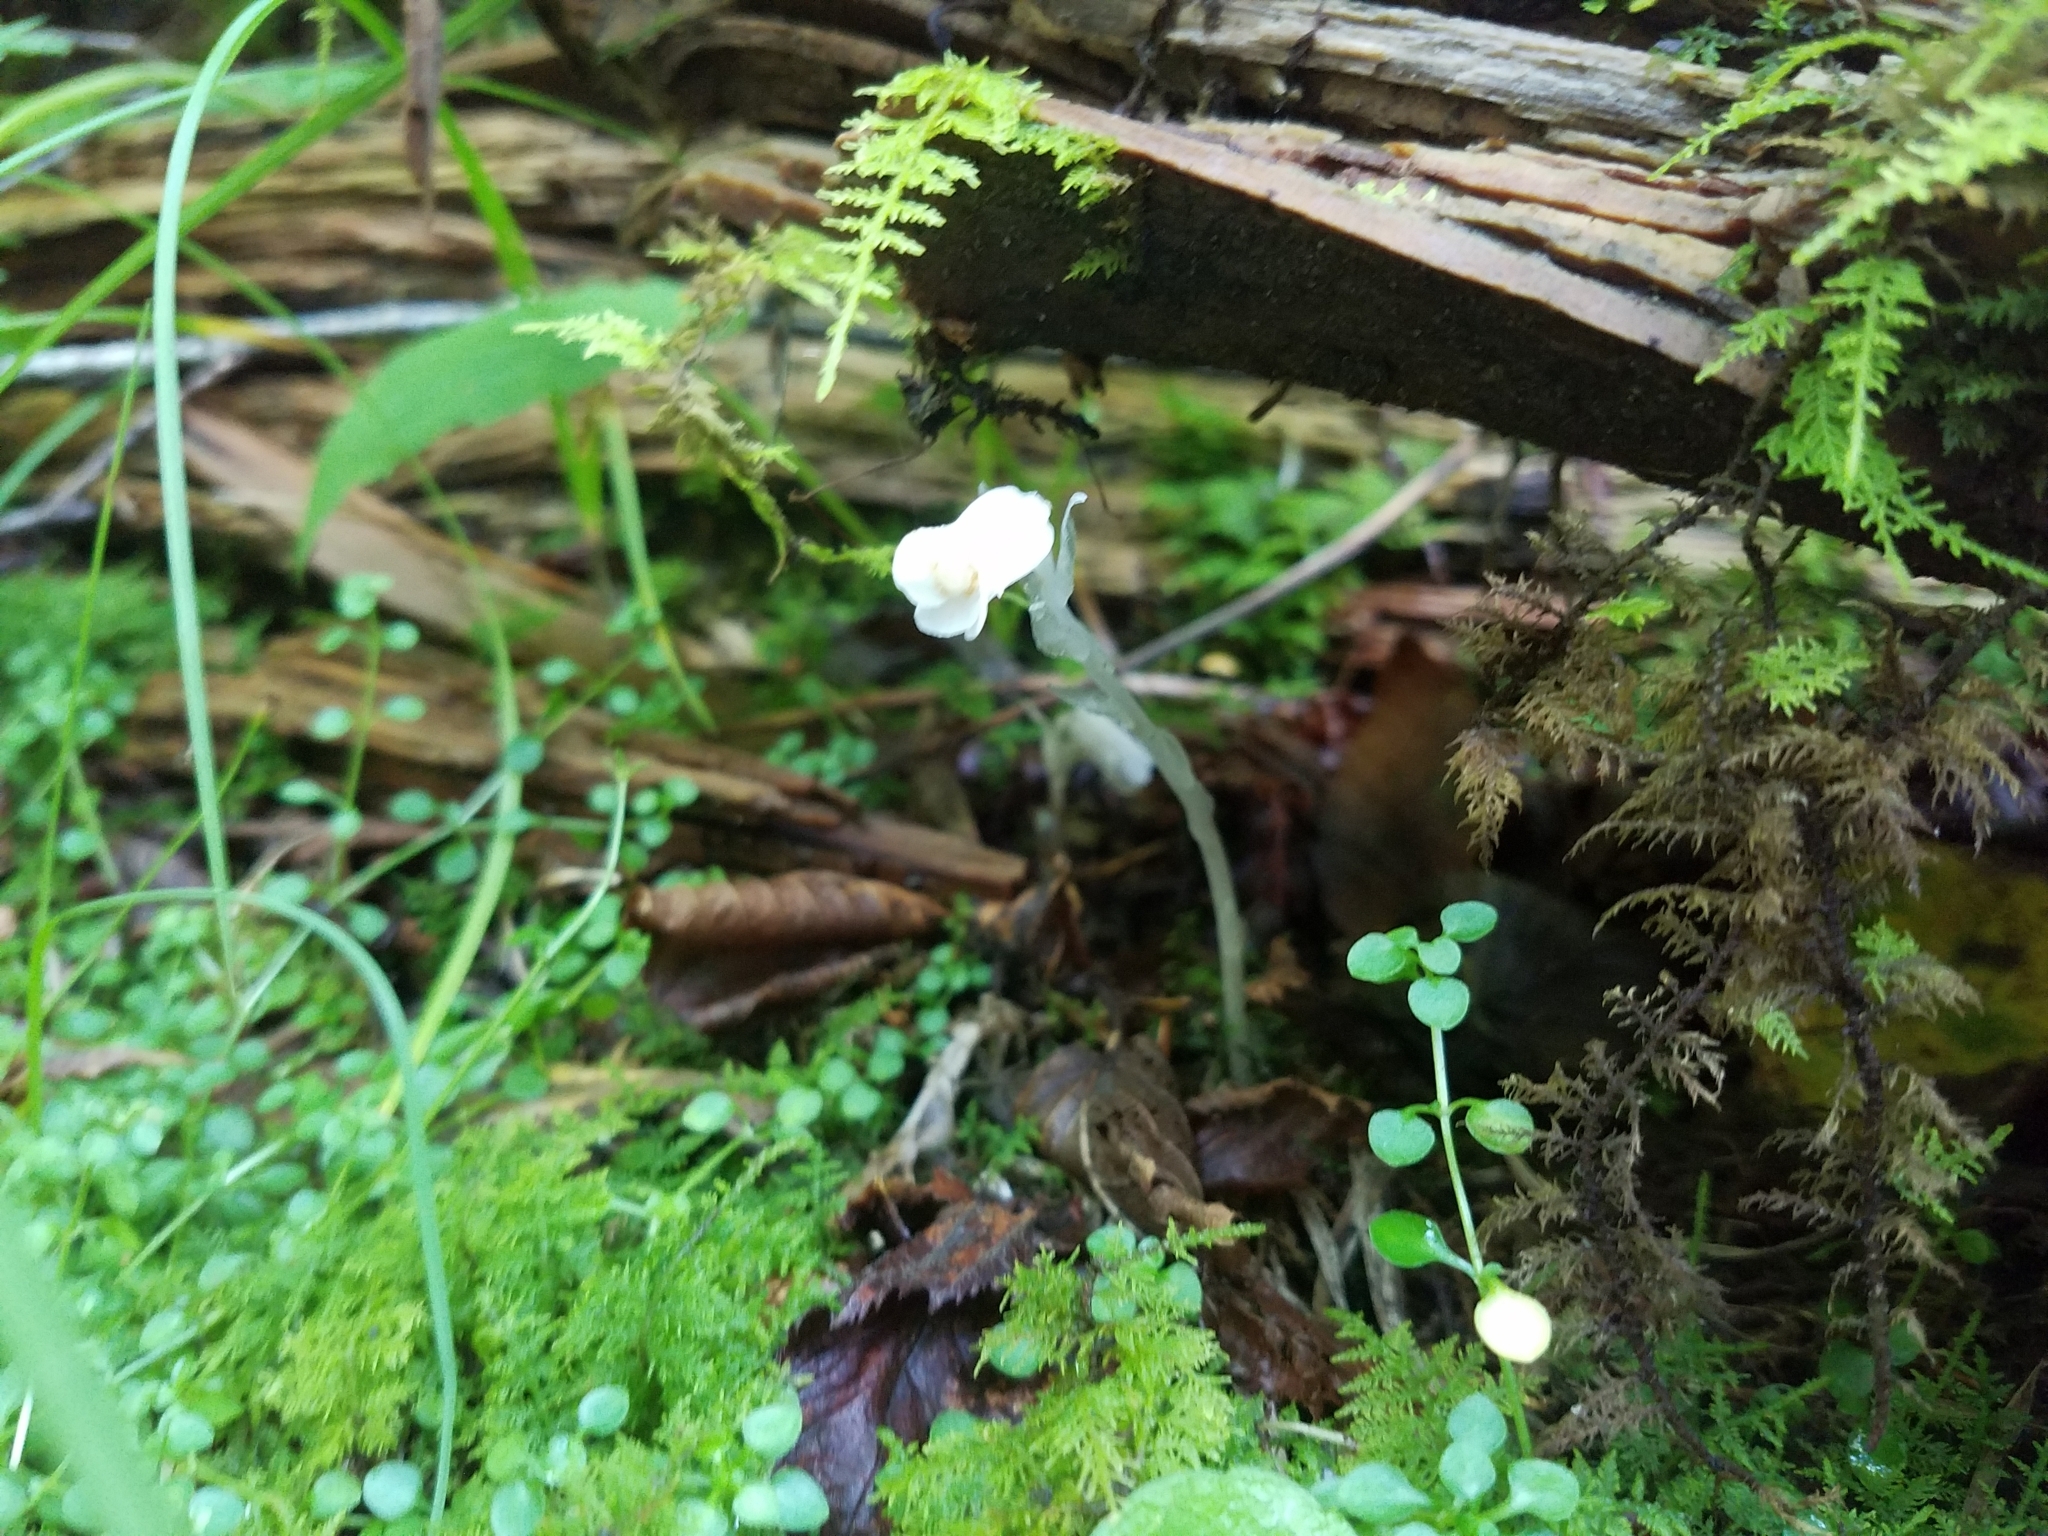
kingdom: Plantae
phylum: Tracheophyta
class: Magnoliopsida
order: Ericales
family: Ericaceae
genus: Monotropa
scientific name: Monotropa uniflora
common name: Convulsion root
